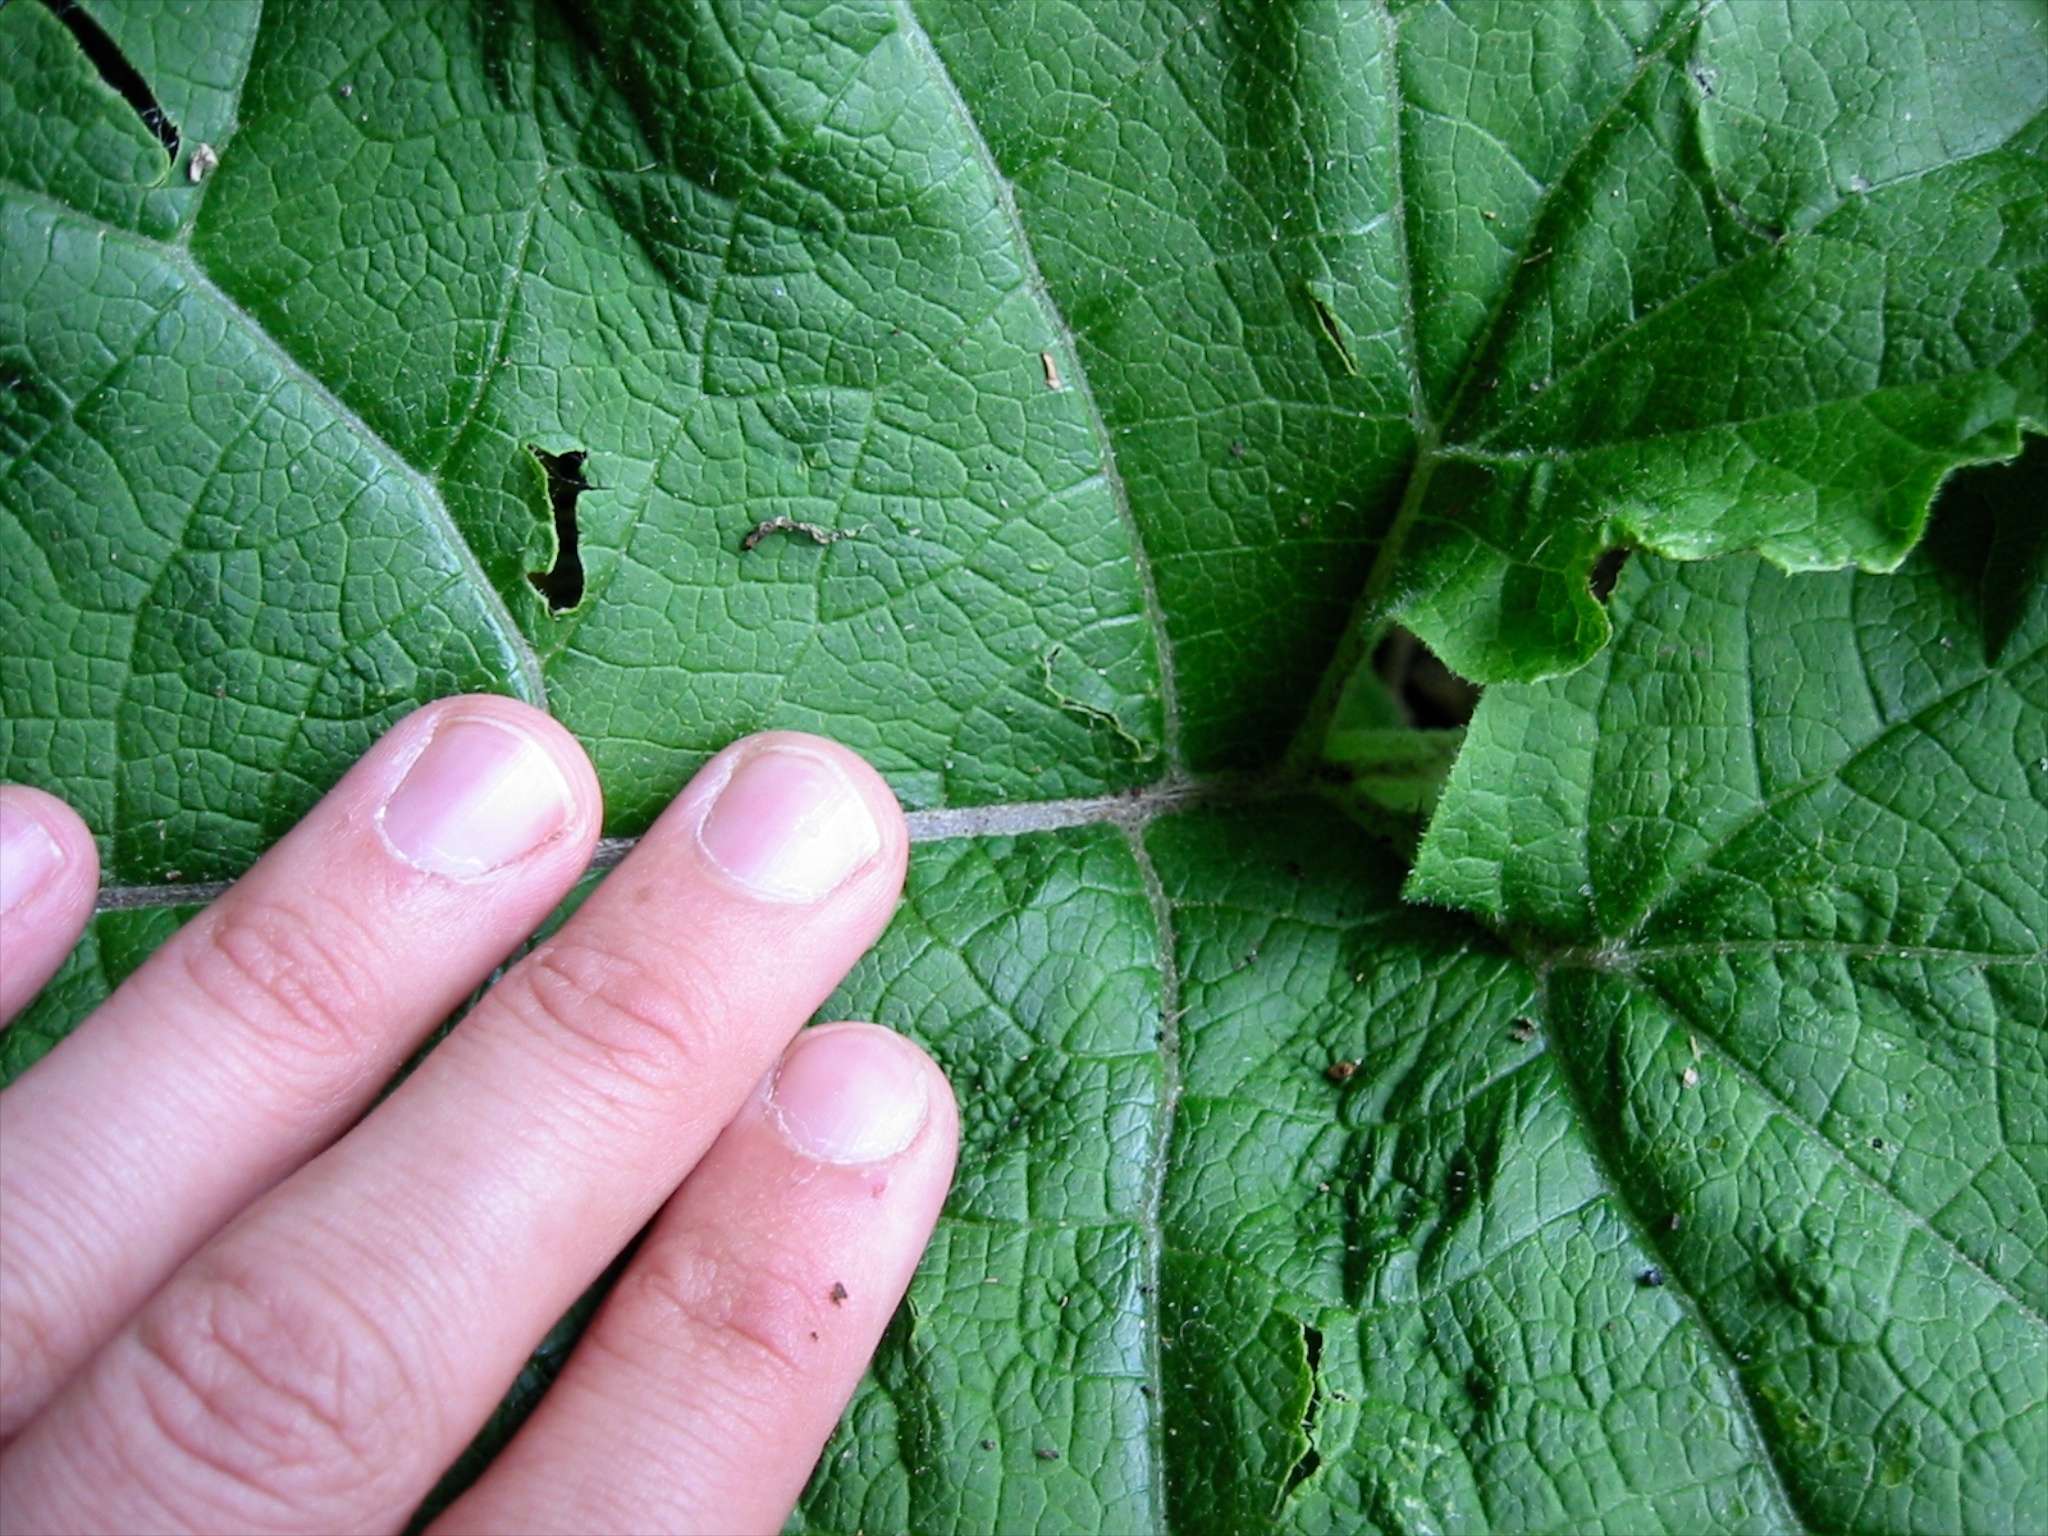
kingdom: Plantae
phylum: Tracheophyta
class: Magnoliopsida
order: Asterales
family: Asteraceae
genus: Arctium
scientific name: Arctium minus
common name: Lesser burdock
